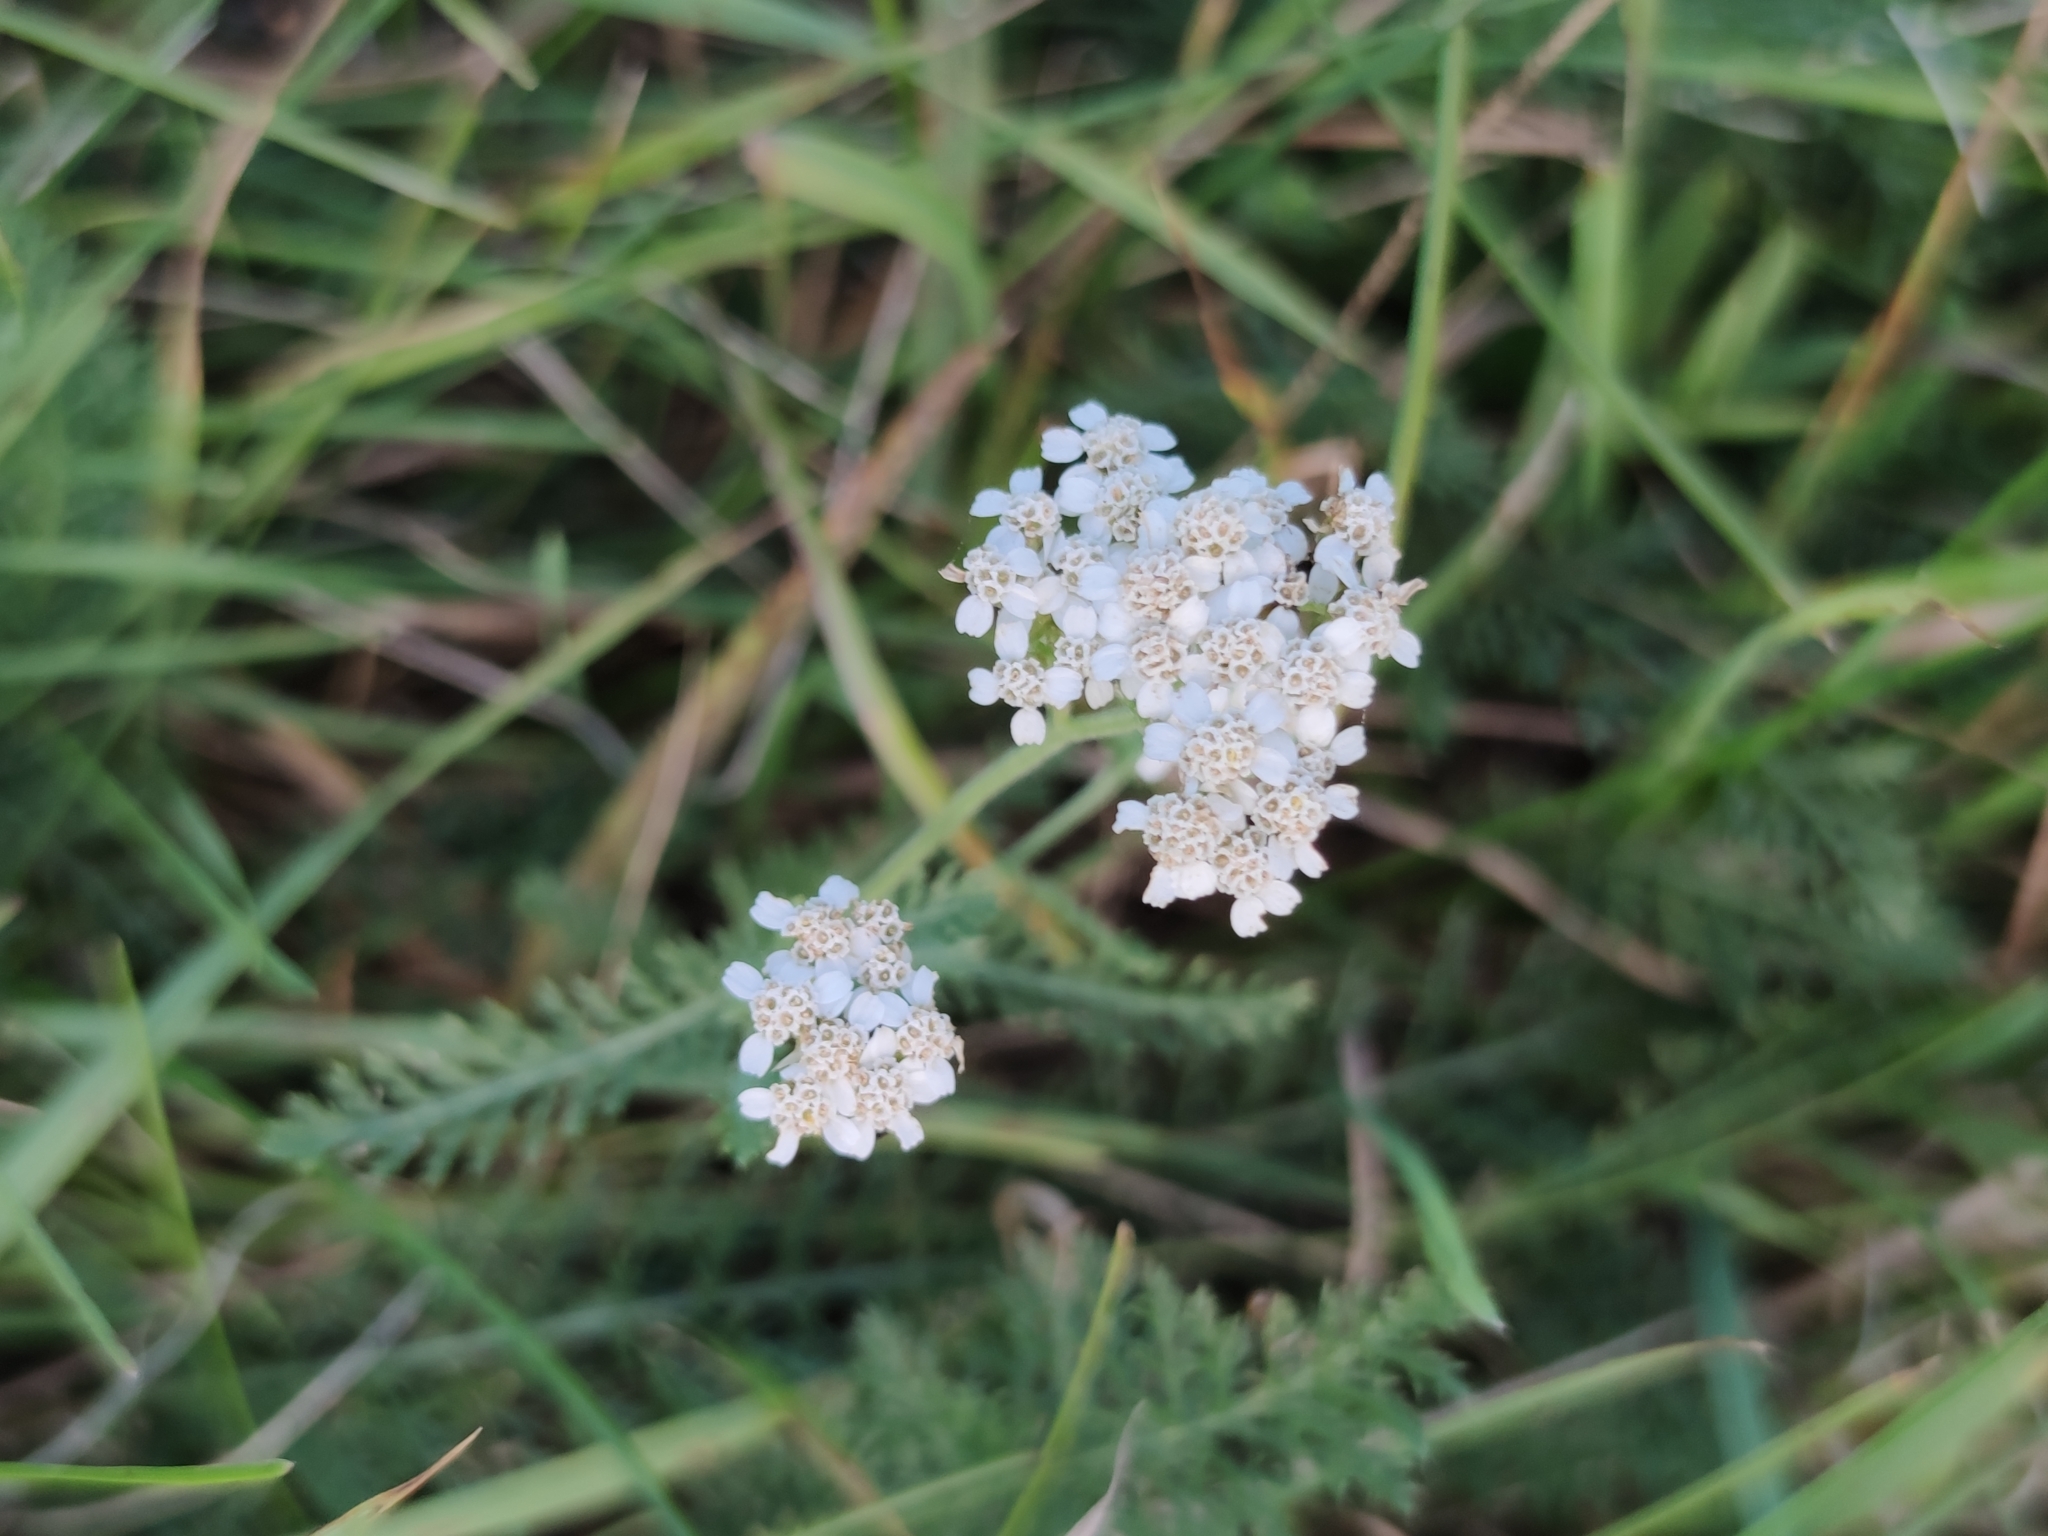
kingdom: Plantae
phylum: Tracheophyta
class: Magnoliopsida
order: Asterales
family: Asteraceae
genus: Achillea
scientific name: Achillea millefolium
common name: Yarrow
